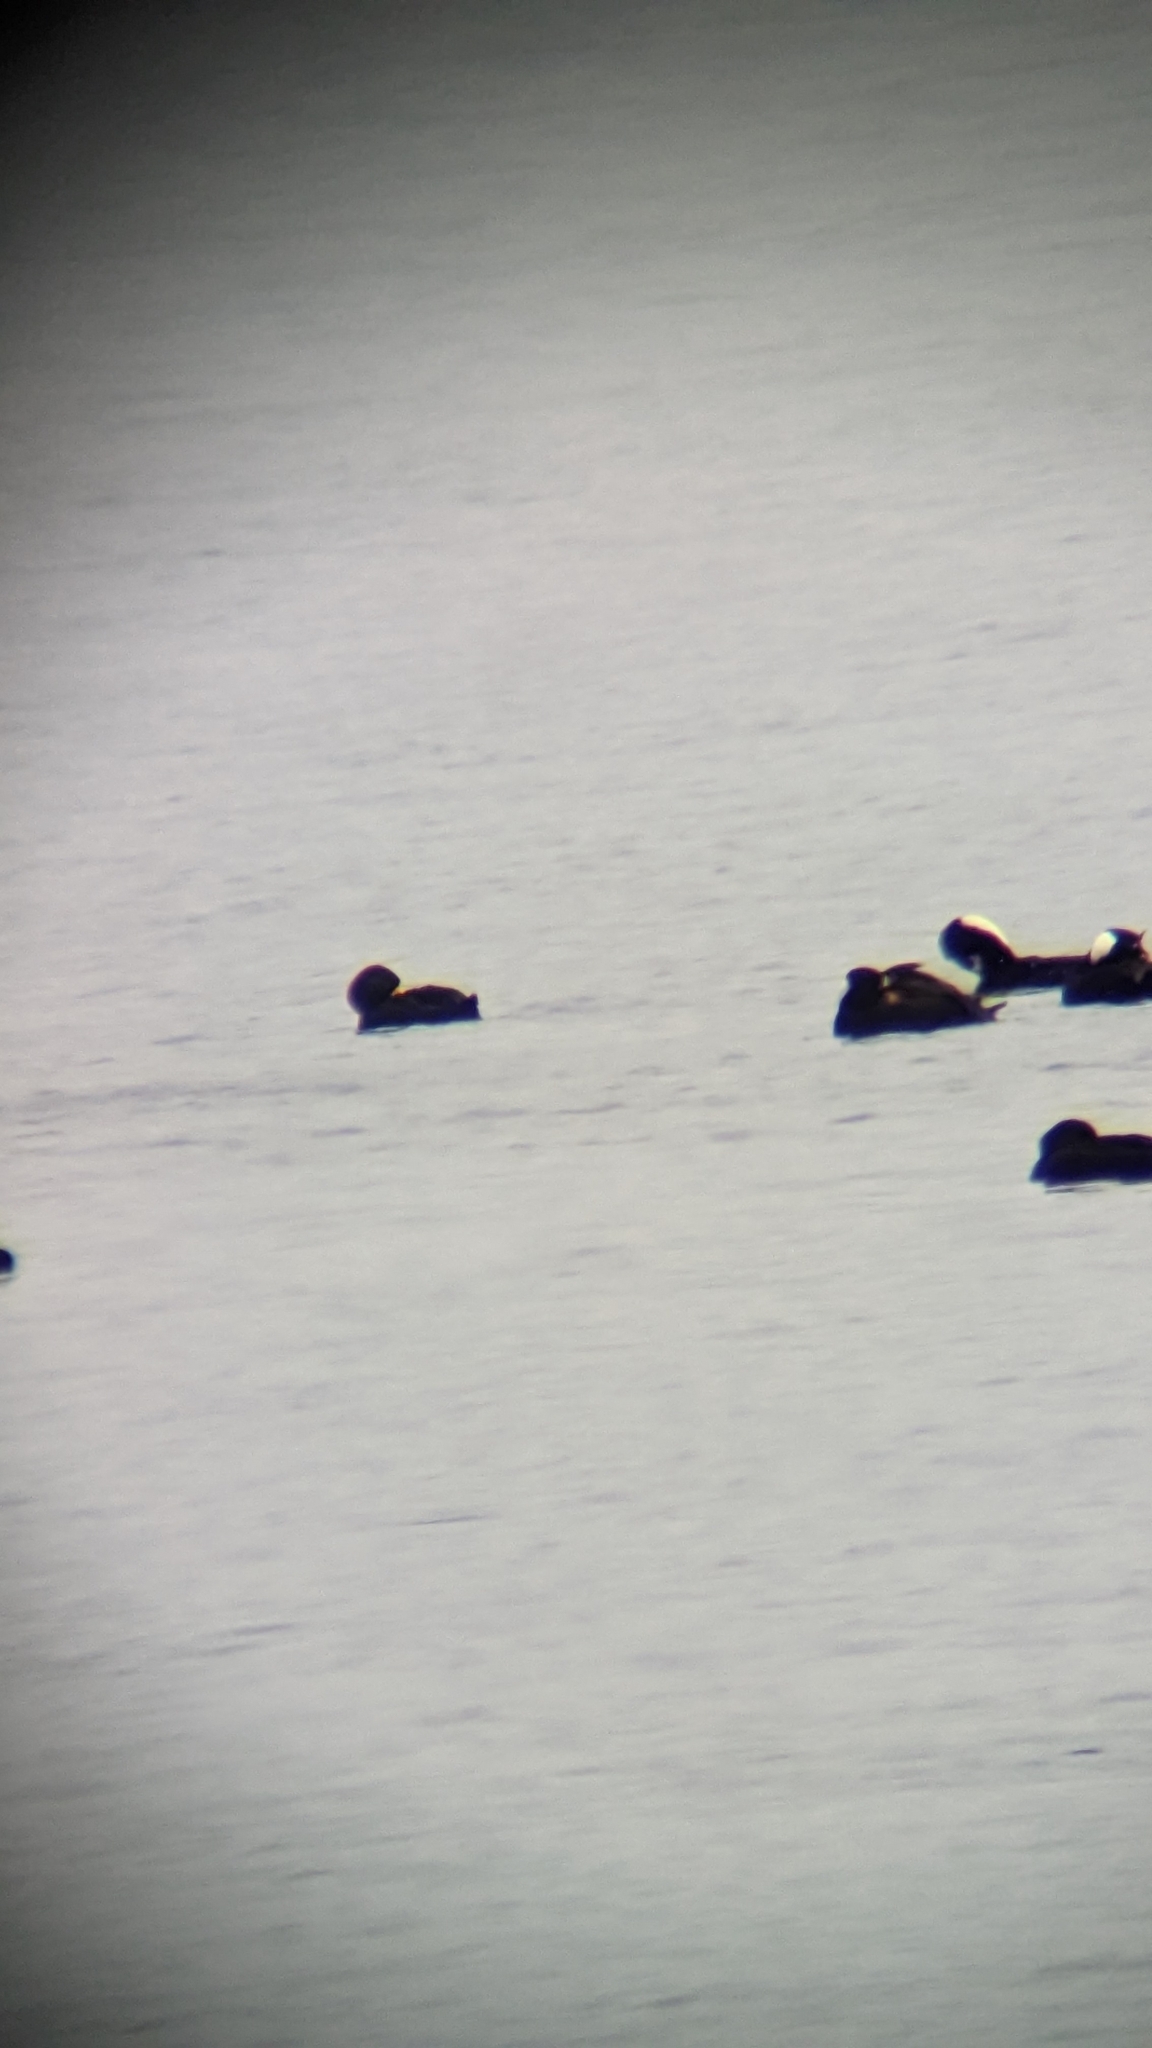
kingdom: Animalia
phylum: Chordata
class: Aves
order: Anseriformes
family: Anatidae
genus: Melanitta
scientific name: Melanitta americana
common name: Black scoter
